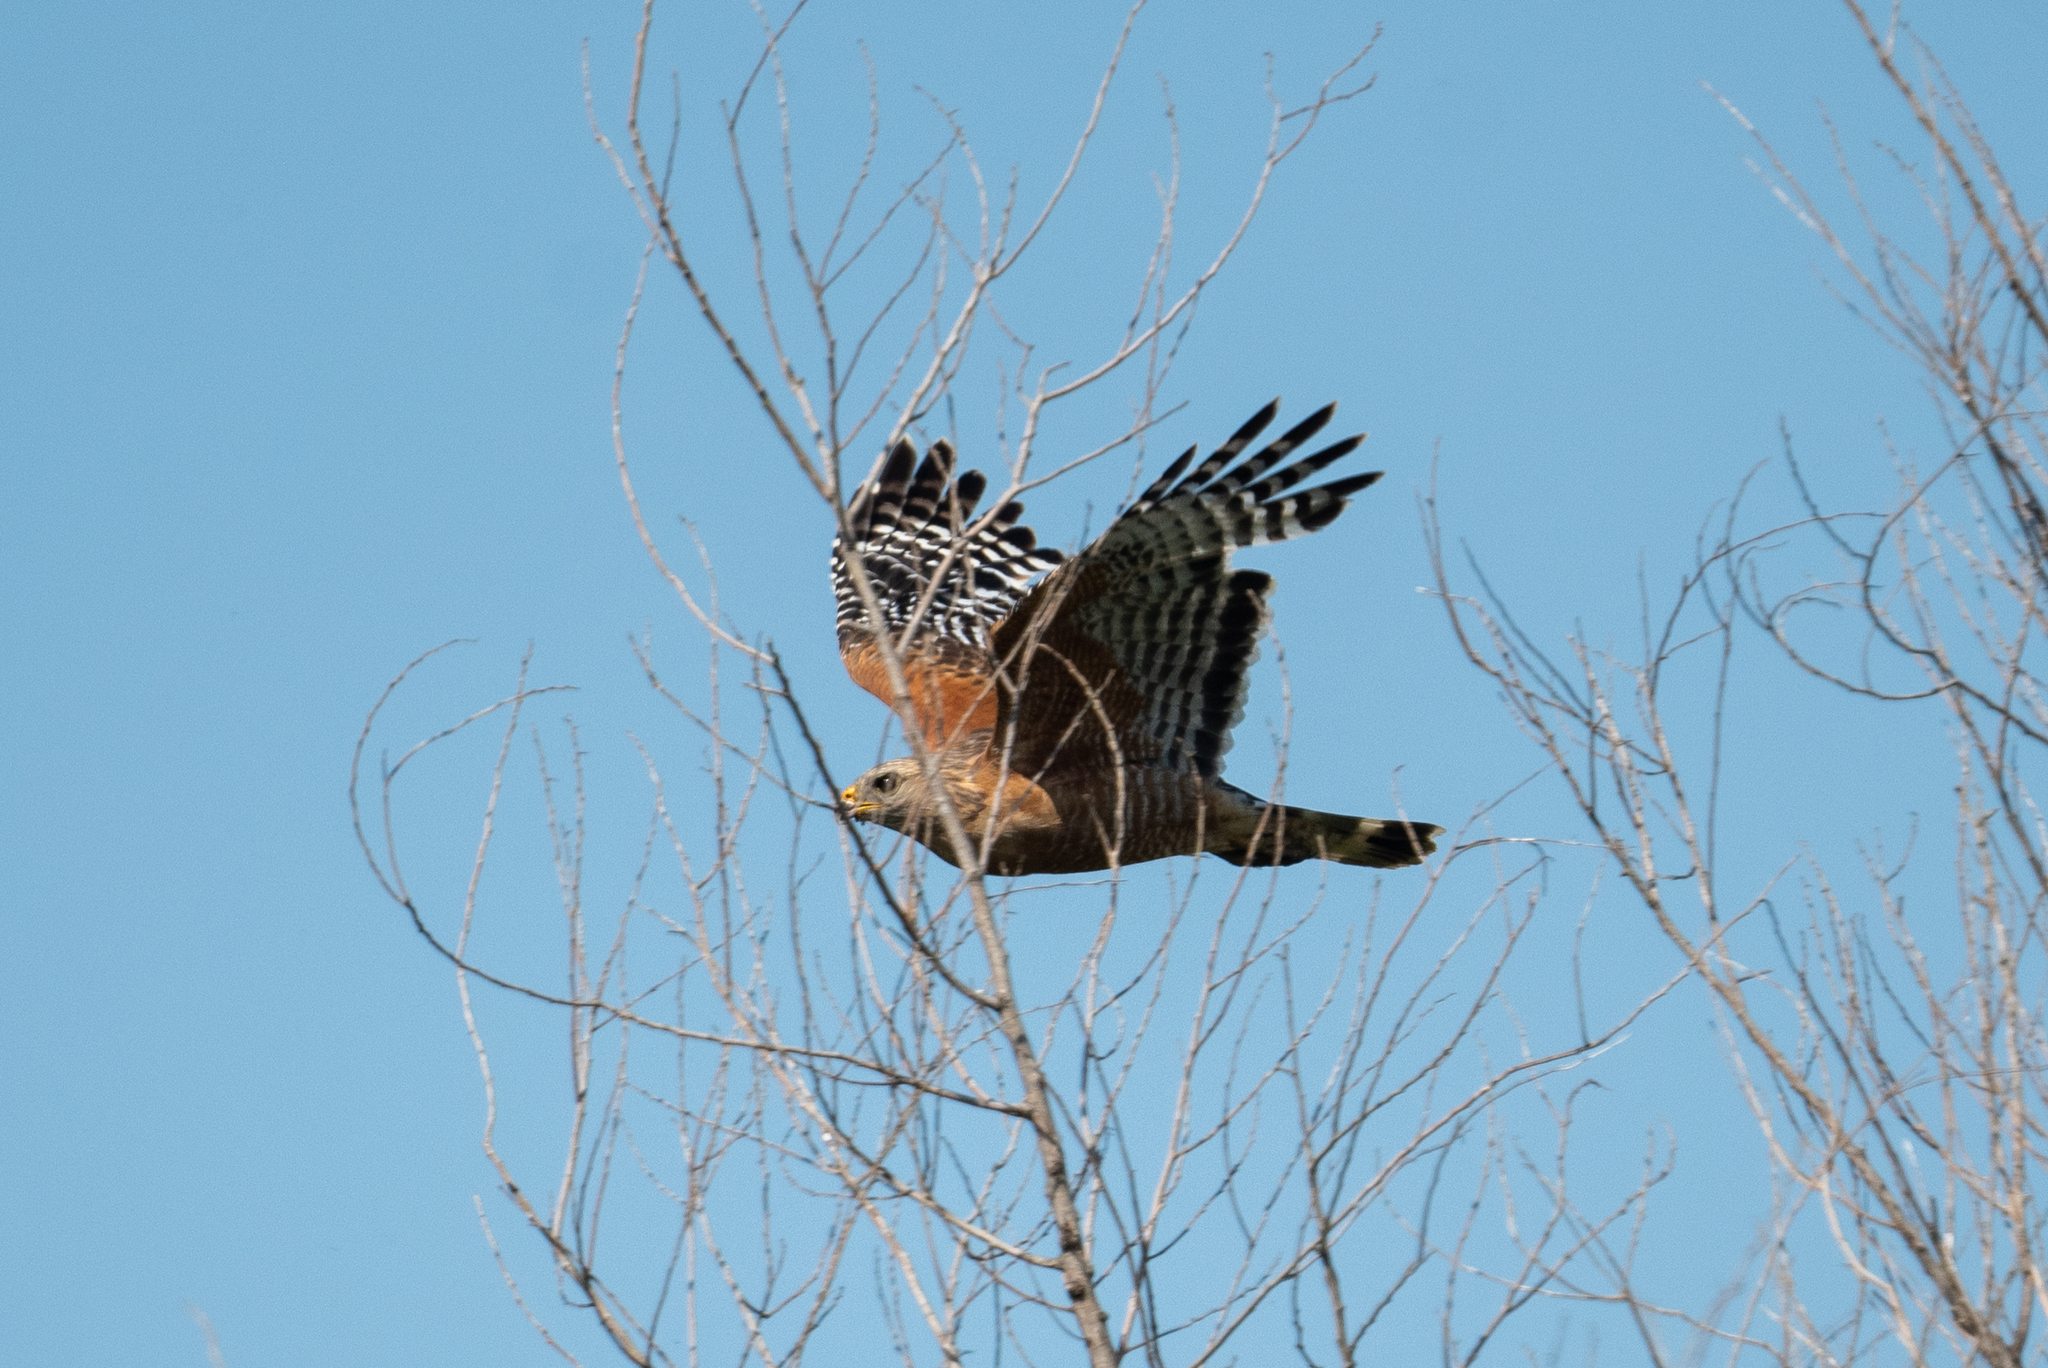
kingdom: Animalia
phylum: Chordata
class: Aves
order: Accipitriformes
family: Accipitridae
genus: Buteo
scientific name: Buteo lineatus
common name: Red-shouldered hawk
